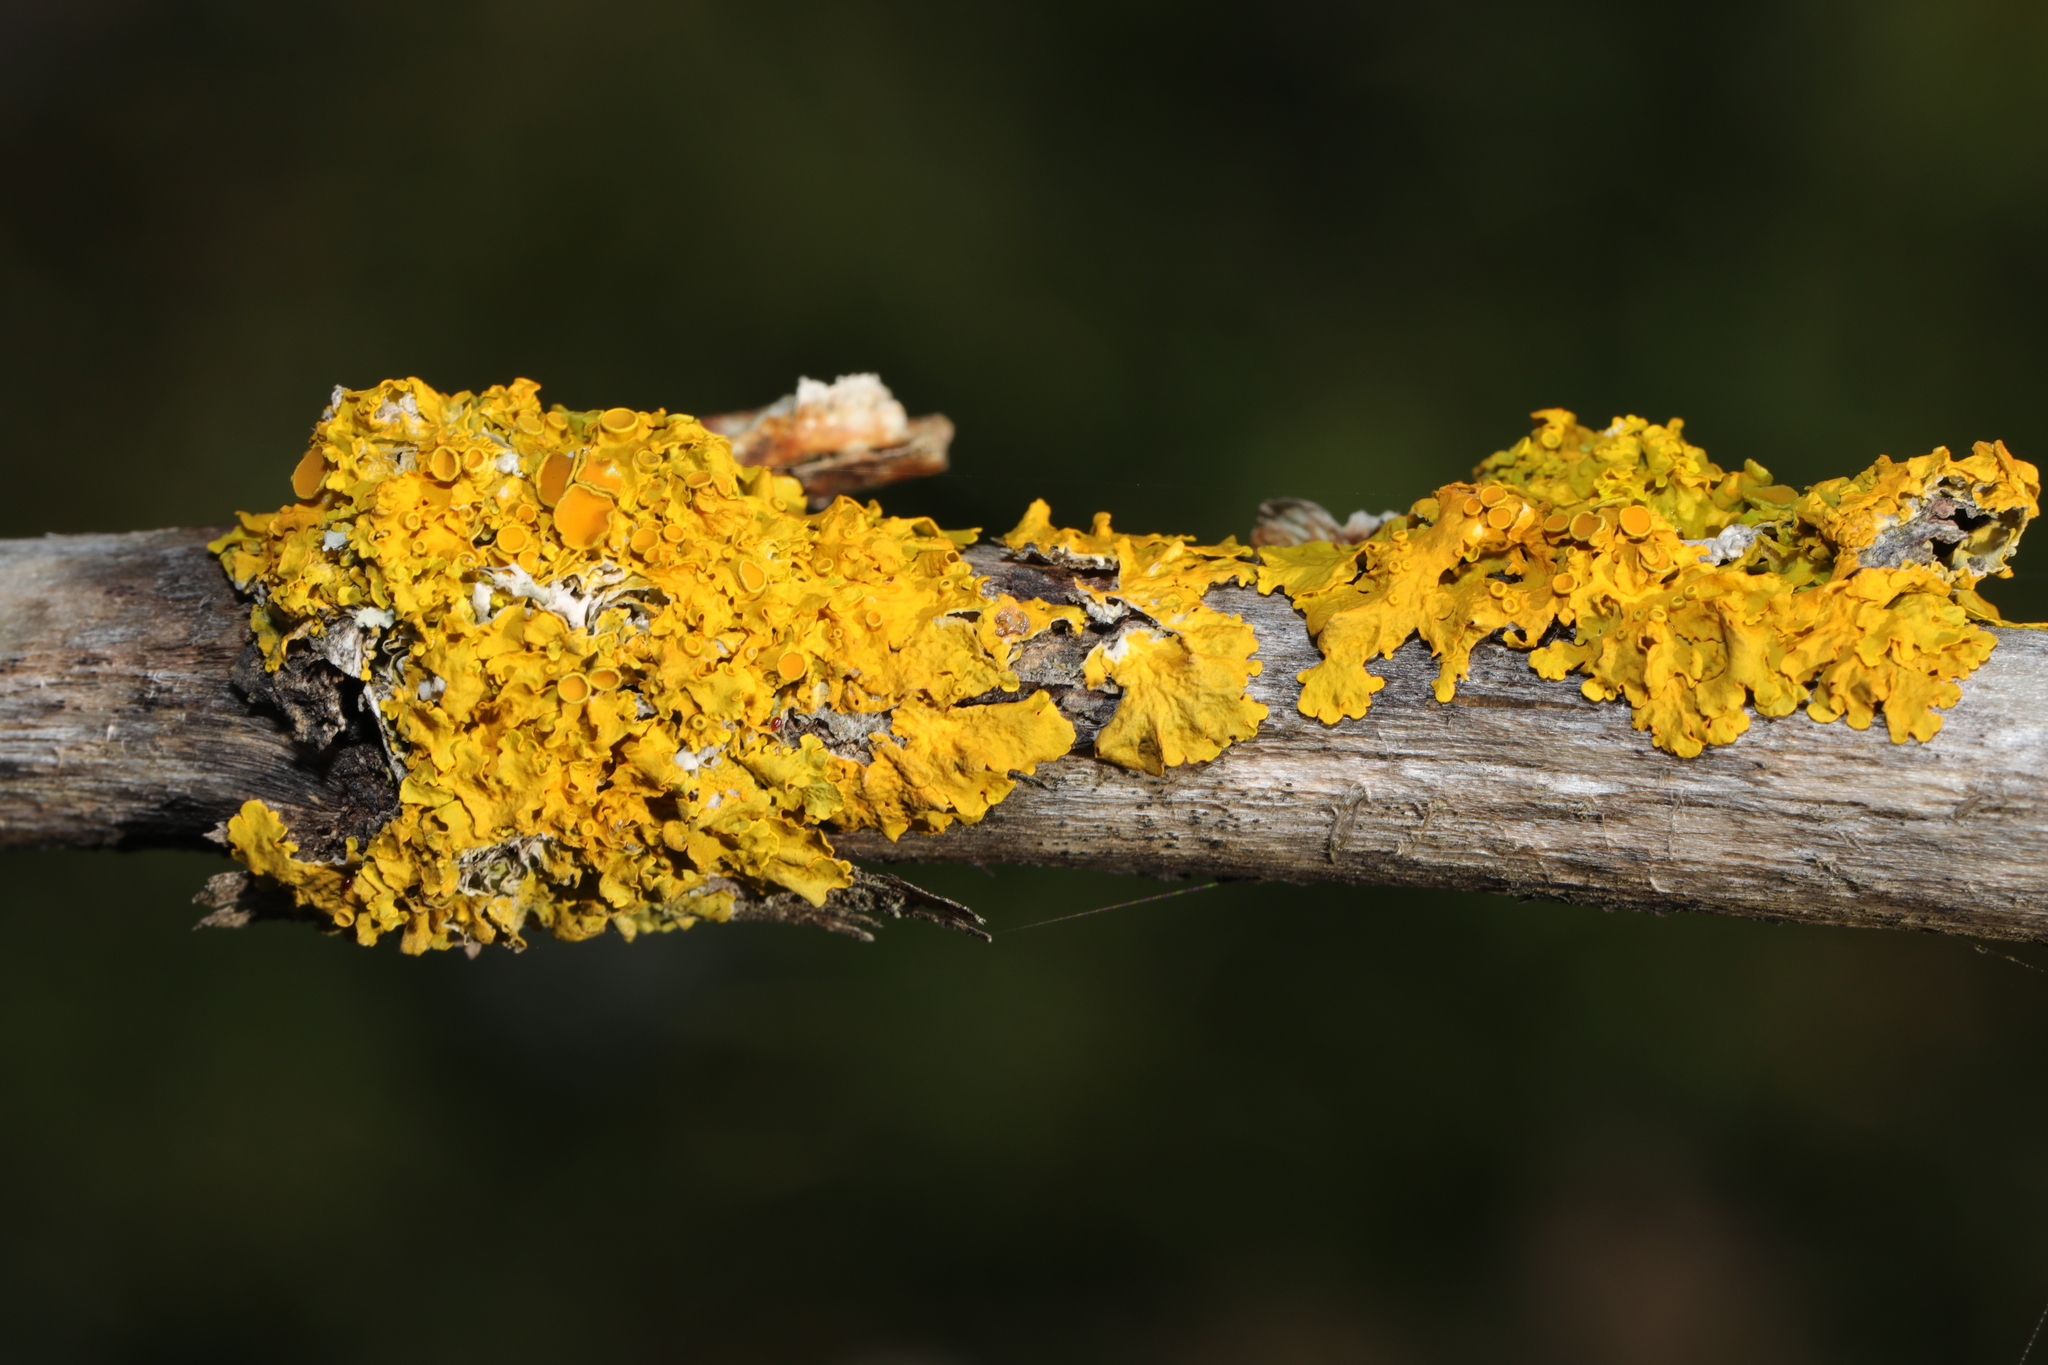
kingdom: Fungi
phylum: Ascomycota
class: Lecanoromycetes
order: Teloschistales
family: Teloschistaceae
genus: Xanthoria
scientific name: Xanthoria parietina
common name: Common orange lichen
